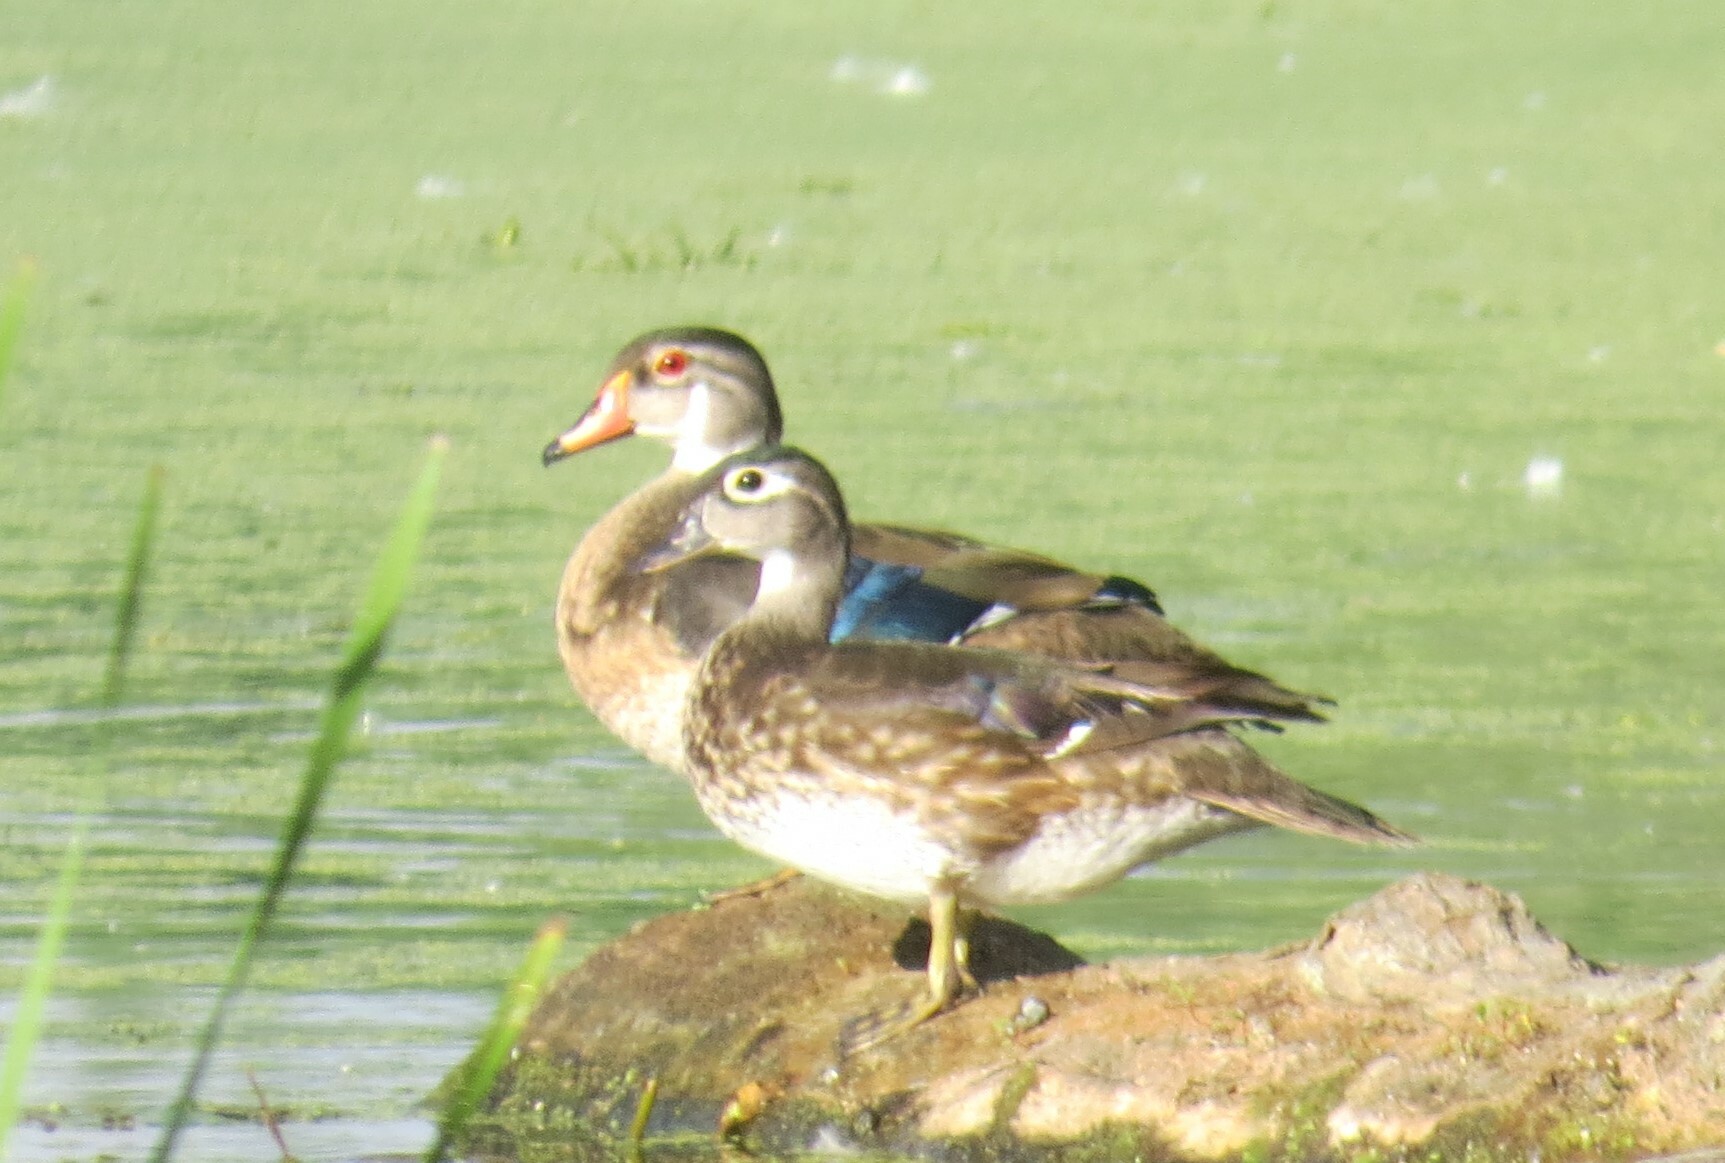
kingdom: Animalia
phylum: Chordata
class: Aves
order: Anseriformes
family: Anatidae
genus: Aix
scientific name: Aix sponsa
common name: Wood duck
